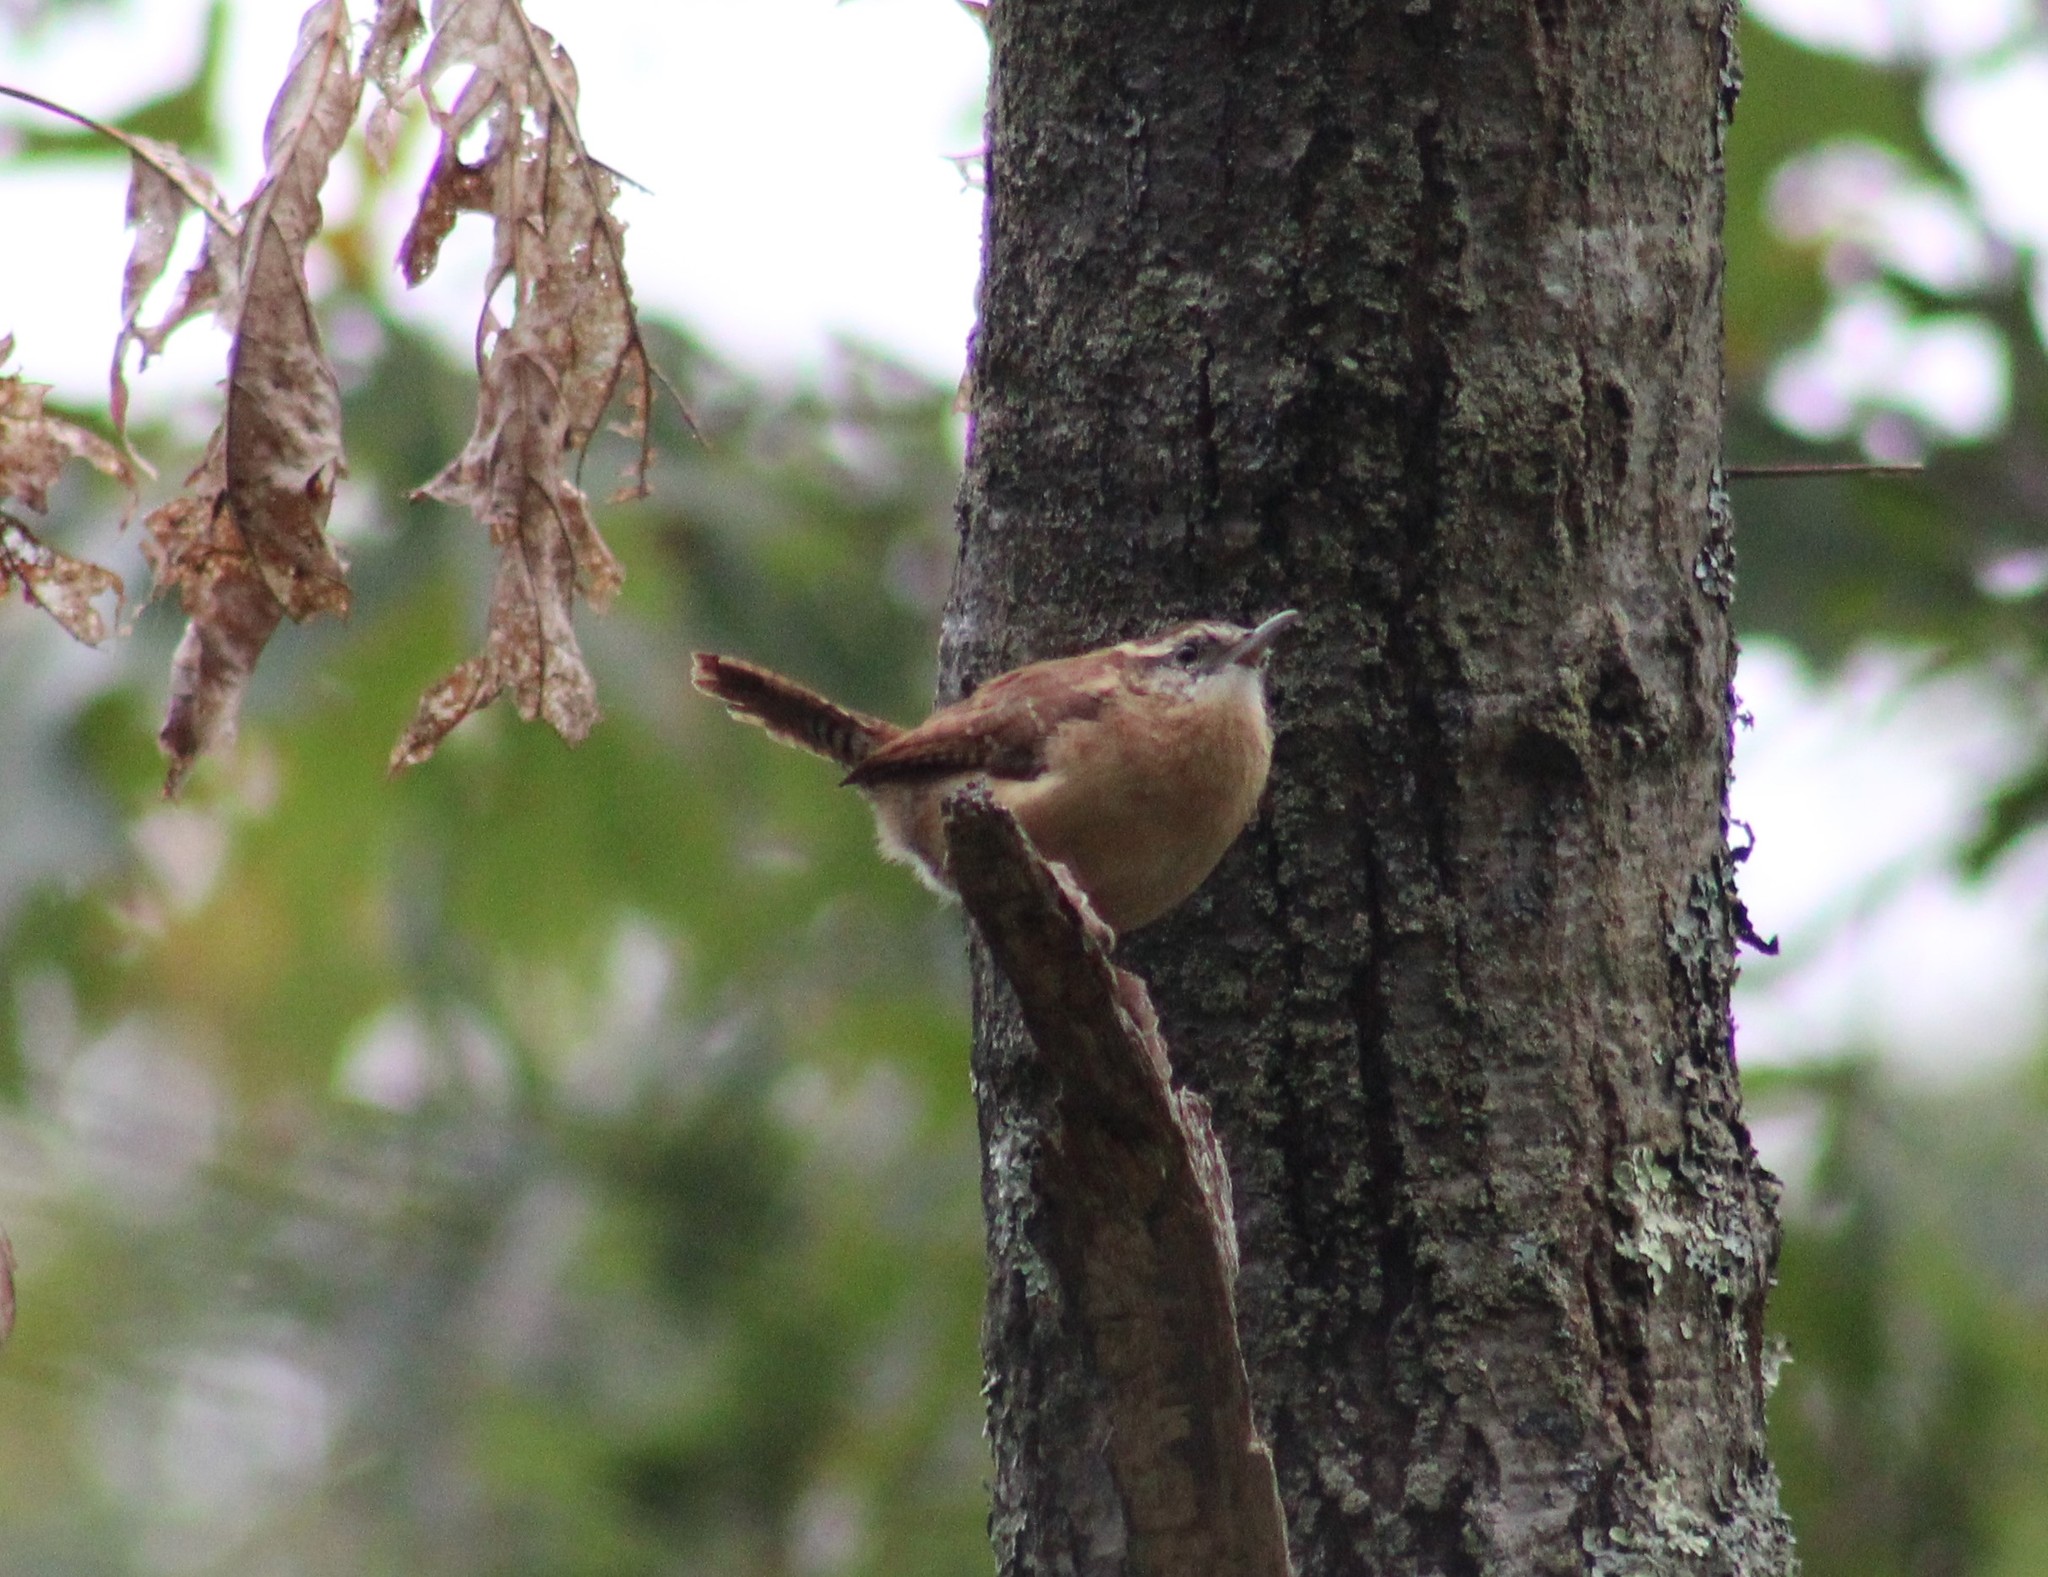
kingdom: Animalia
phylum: Chordata
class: Aves
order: Passeriformes
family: Troglodytidae
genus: Thryothorus
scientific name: Thryothorus ludovicianus
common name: Carolina wren
